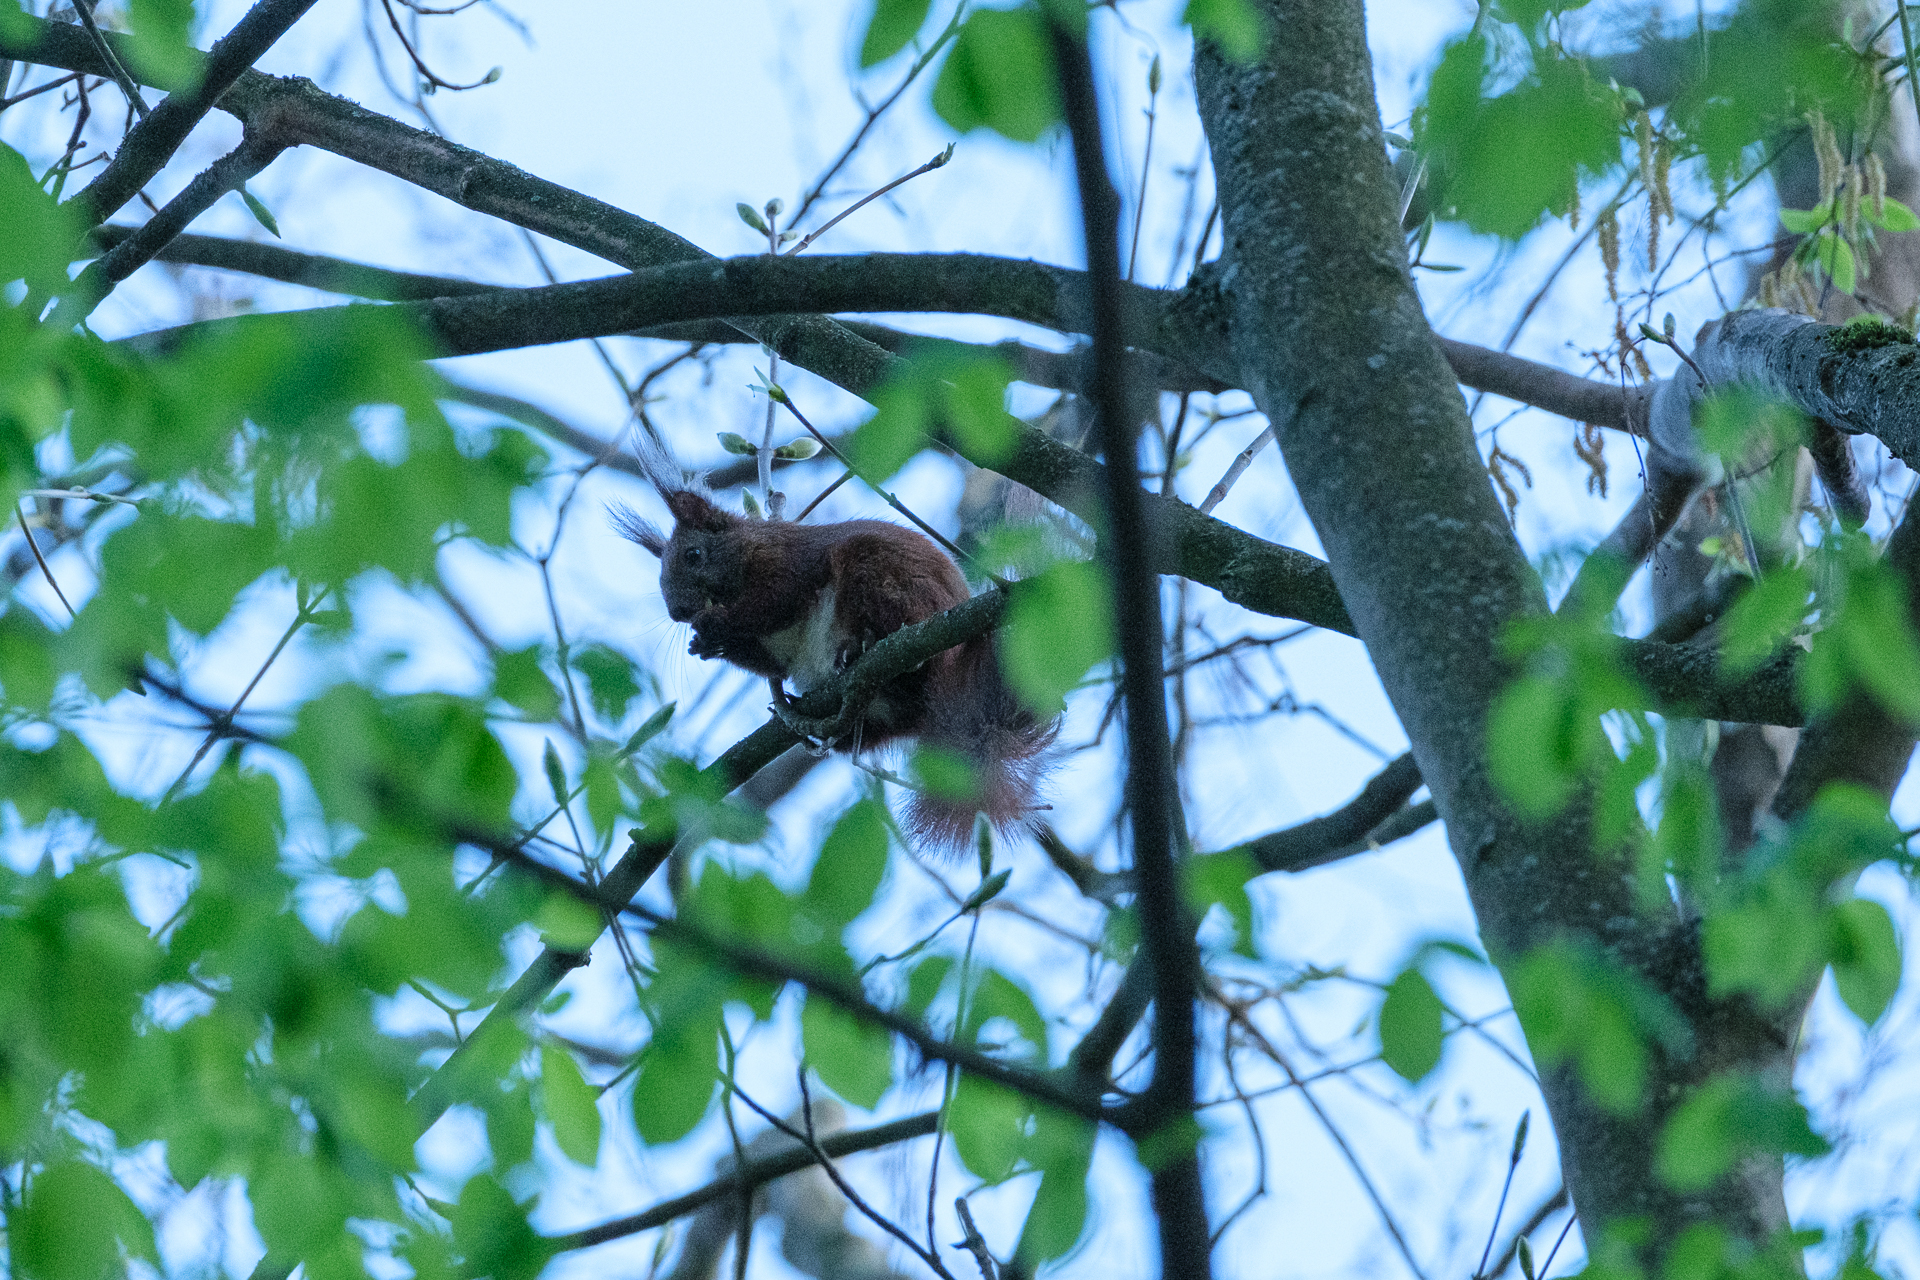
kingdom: Animalia
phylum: Chordata
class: Mammalia
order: Rodentia
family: Sciuridae
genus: Sciurus
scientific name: Sciurus vulgaris
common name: Eurasian red squirrel
